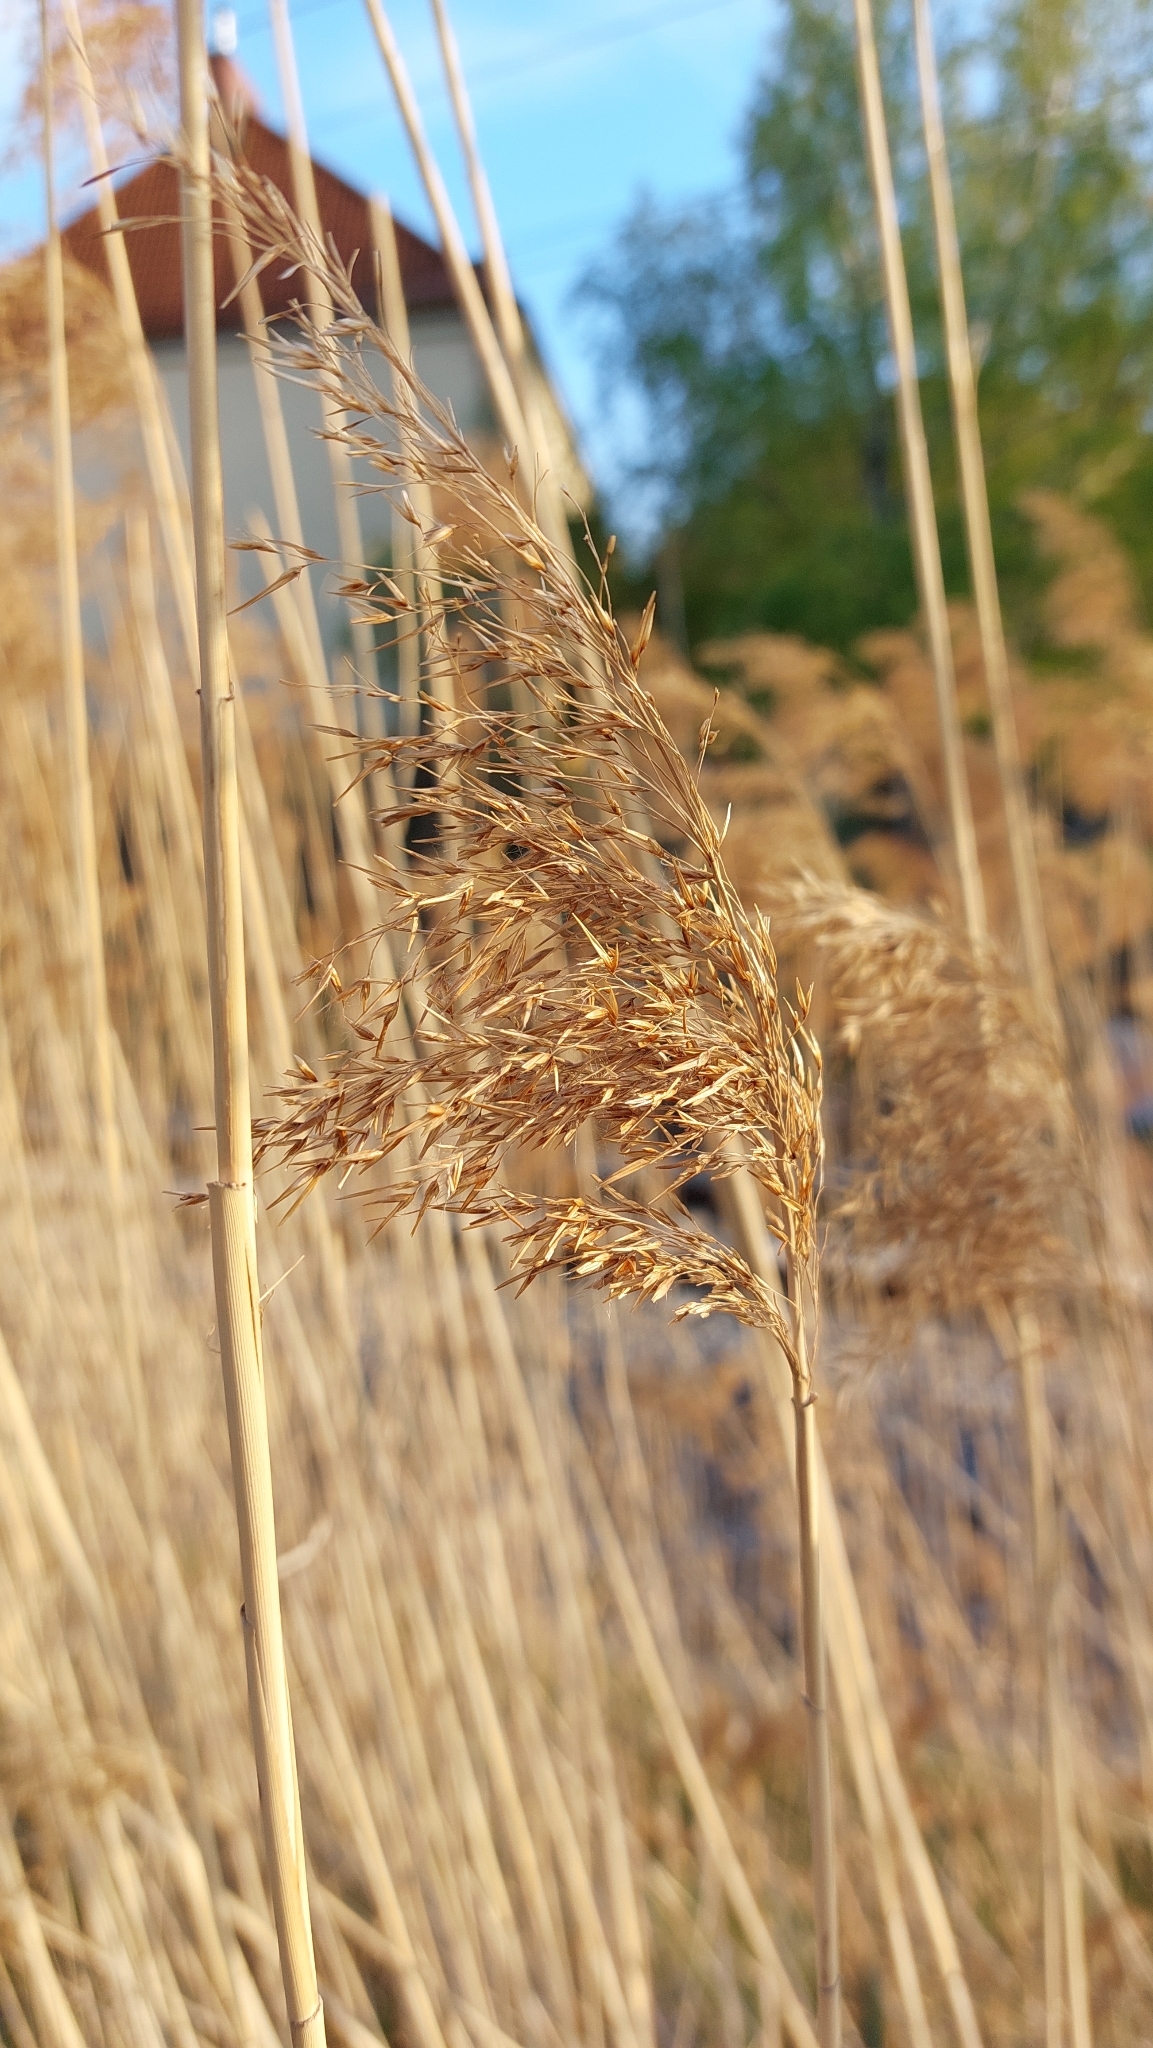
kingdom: Plantae
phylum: Tracheophyta
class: Liliopsida
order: Poales
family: Poaceae
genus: Phragmites
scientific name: Phragmites australis
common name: Common reed
